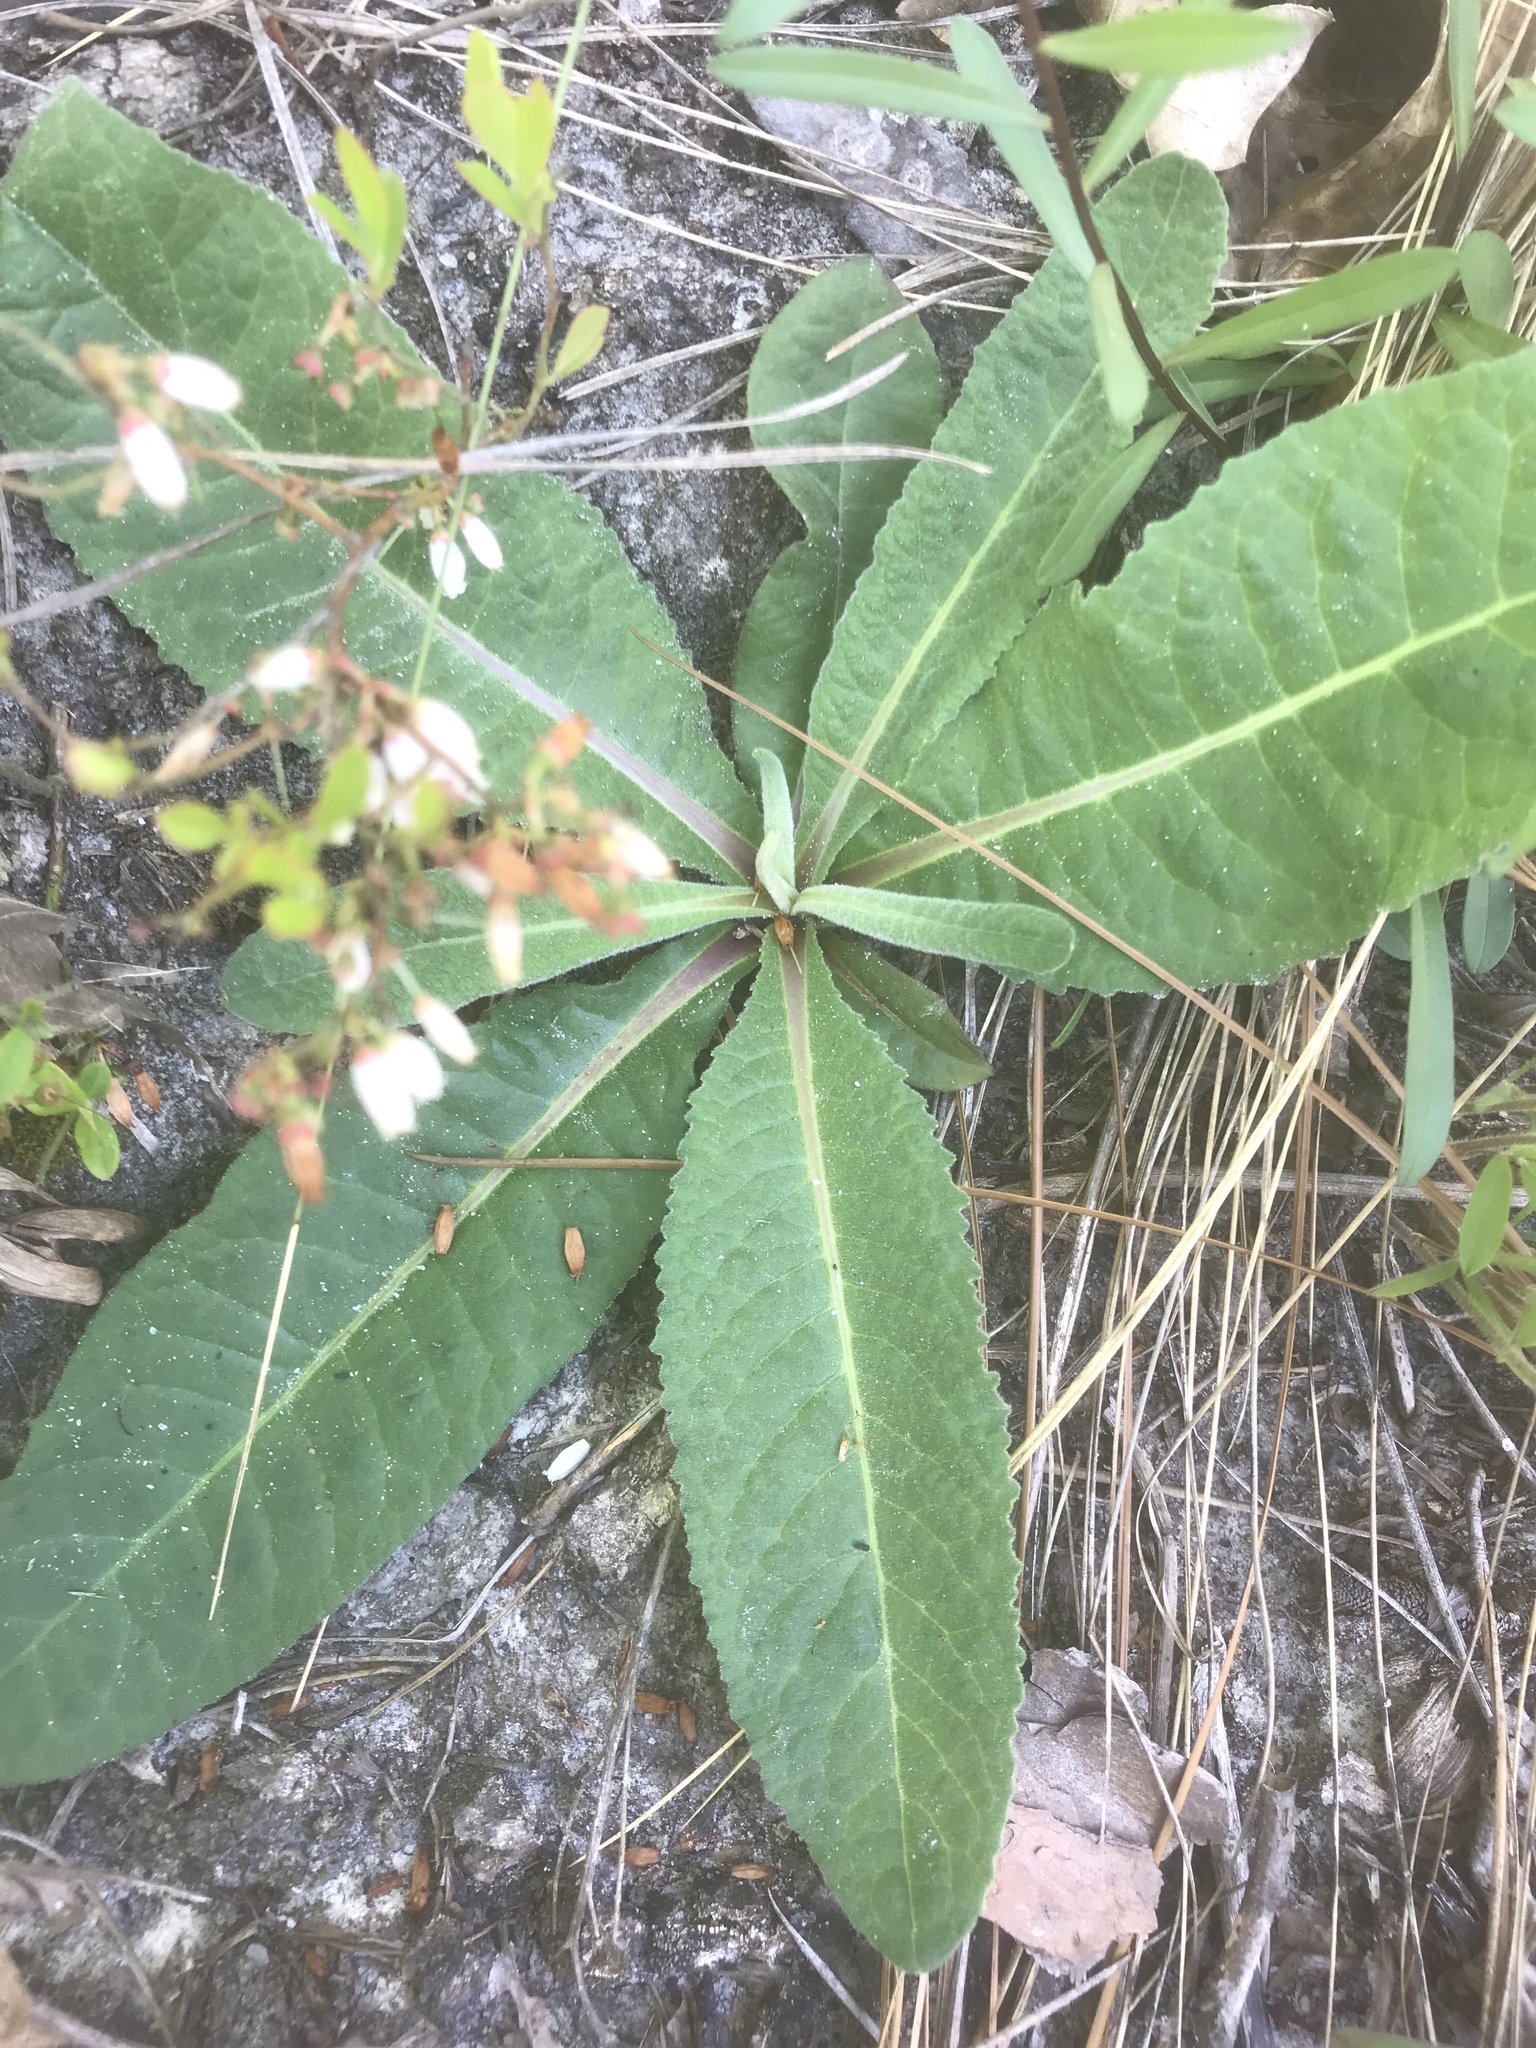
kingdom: Plantae
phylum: Tracheophyta
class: Magnoliopsida
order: Asterales
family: Asteraceae
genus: Vernonia
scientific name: Vernonia acaulis
